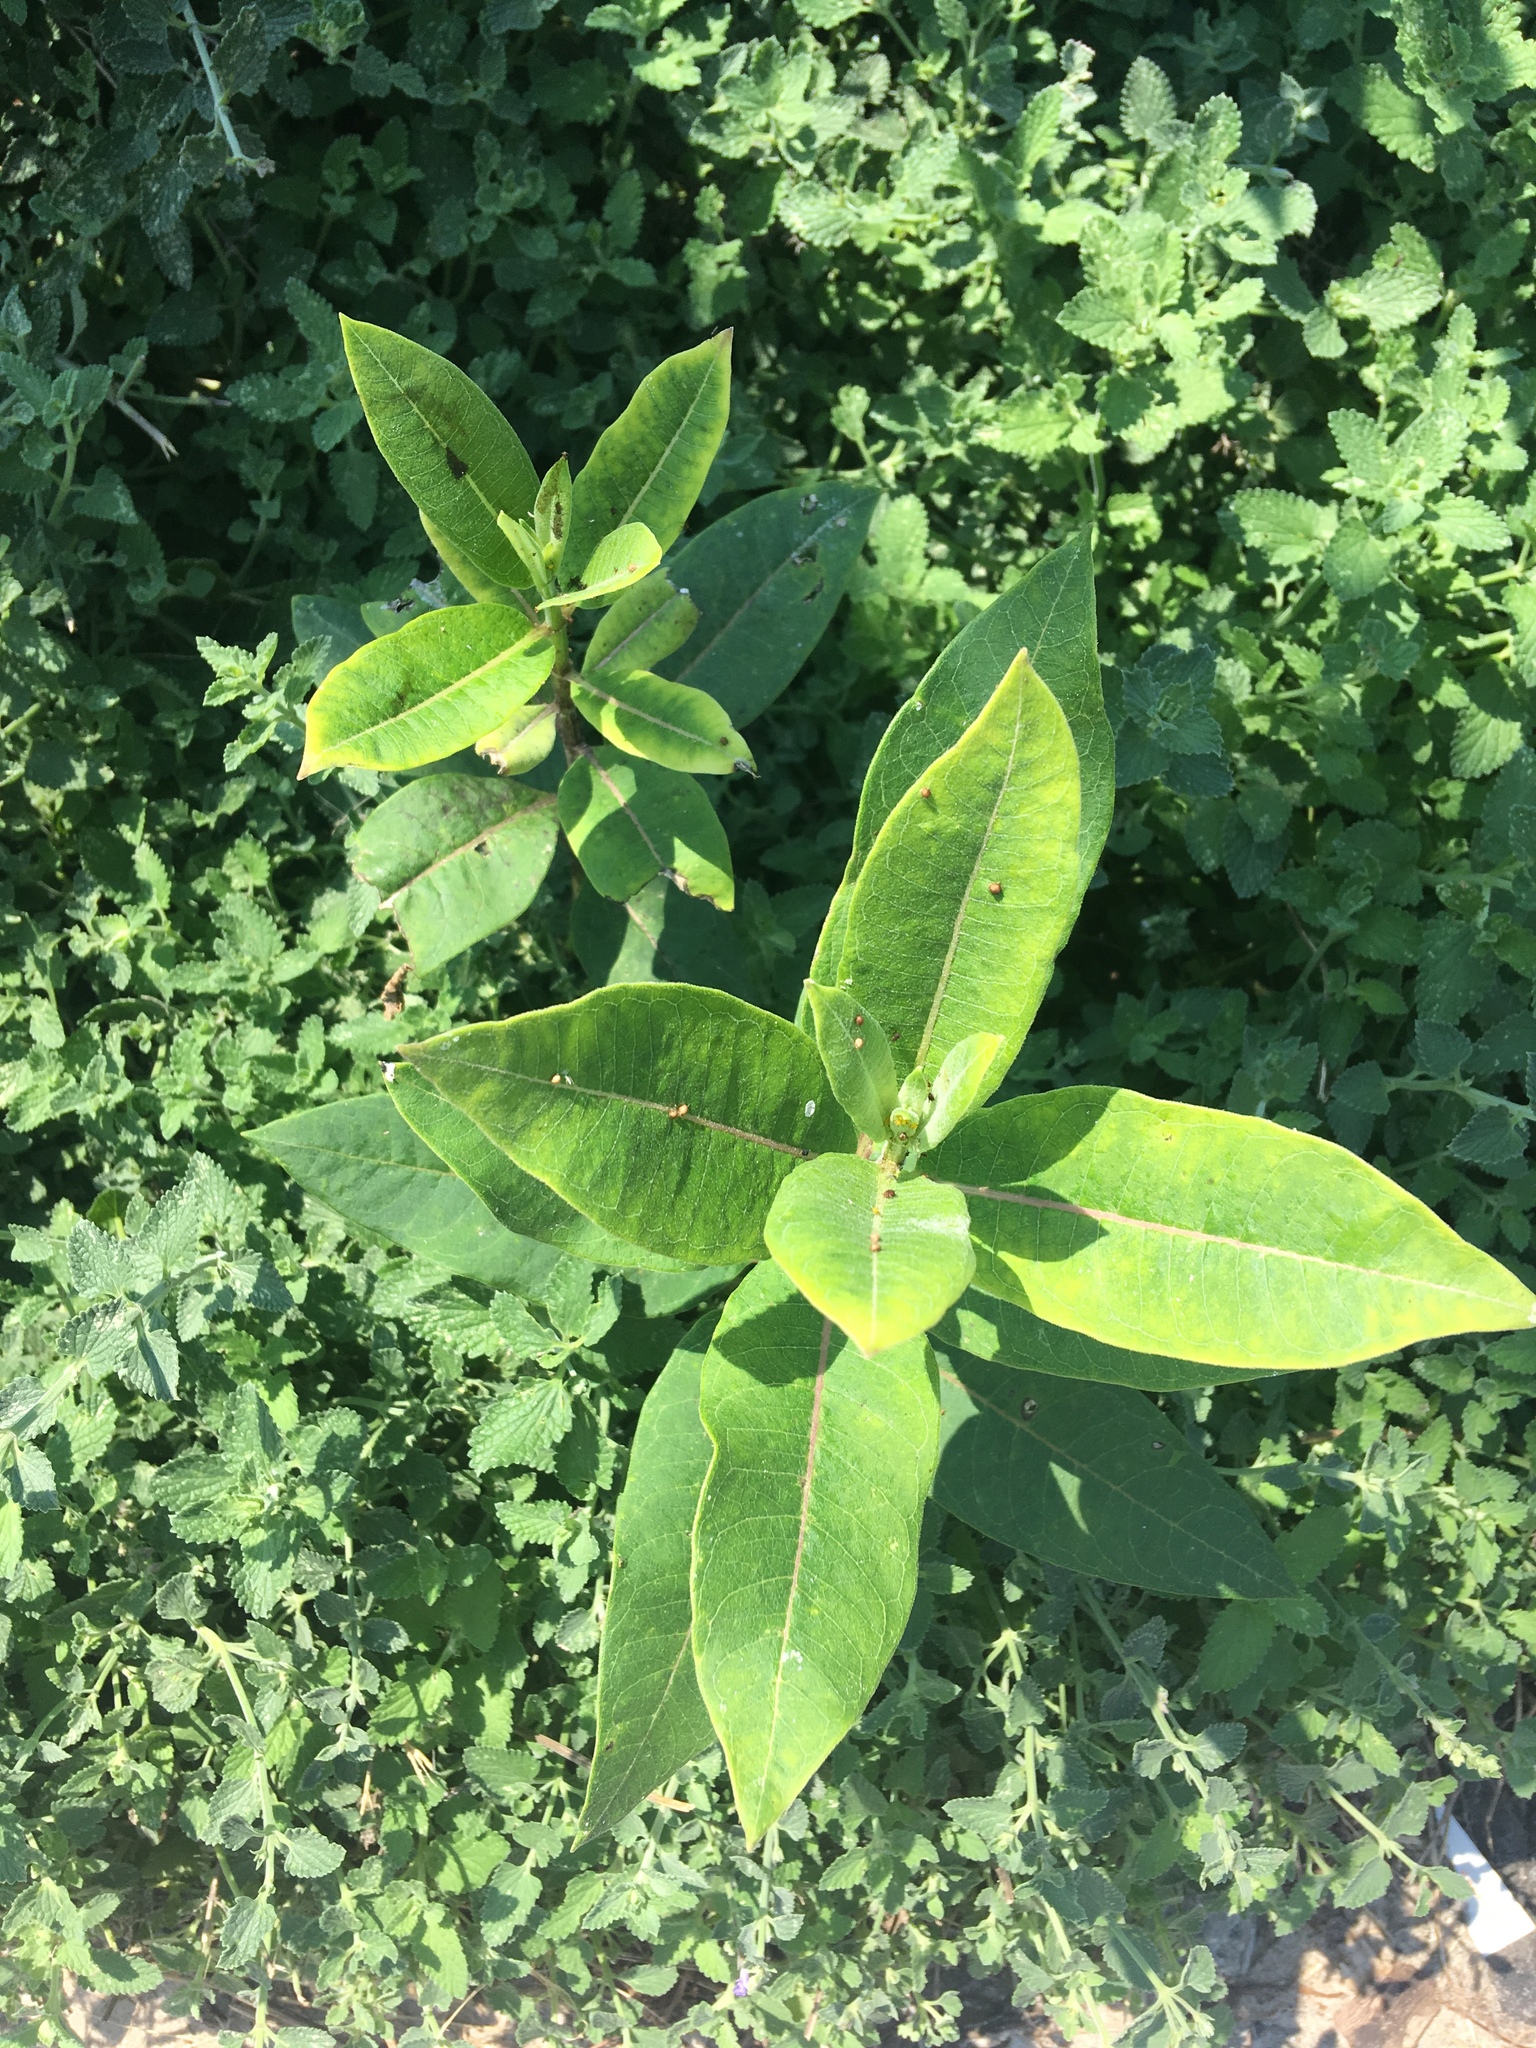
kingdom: Plantae
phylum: Tracheophyta
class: Magnoliopsida
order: Gentianales
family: Apocynaceae
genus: Asclepias
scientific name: Asclepias syriaca
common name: Common milkweed
